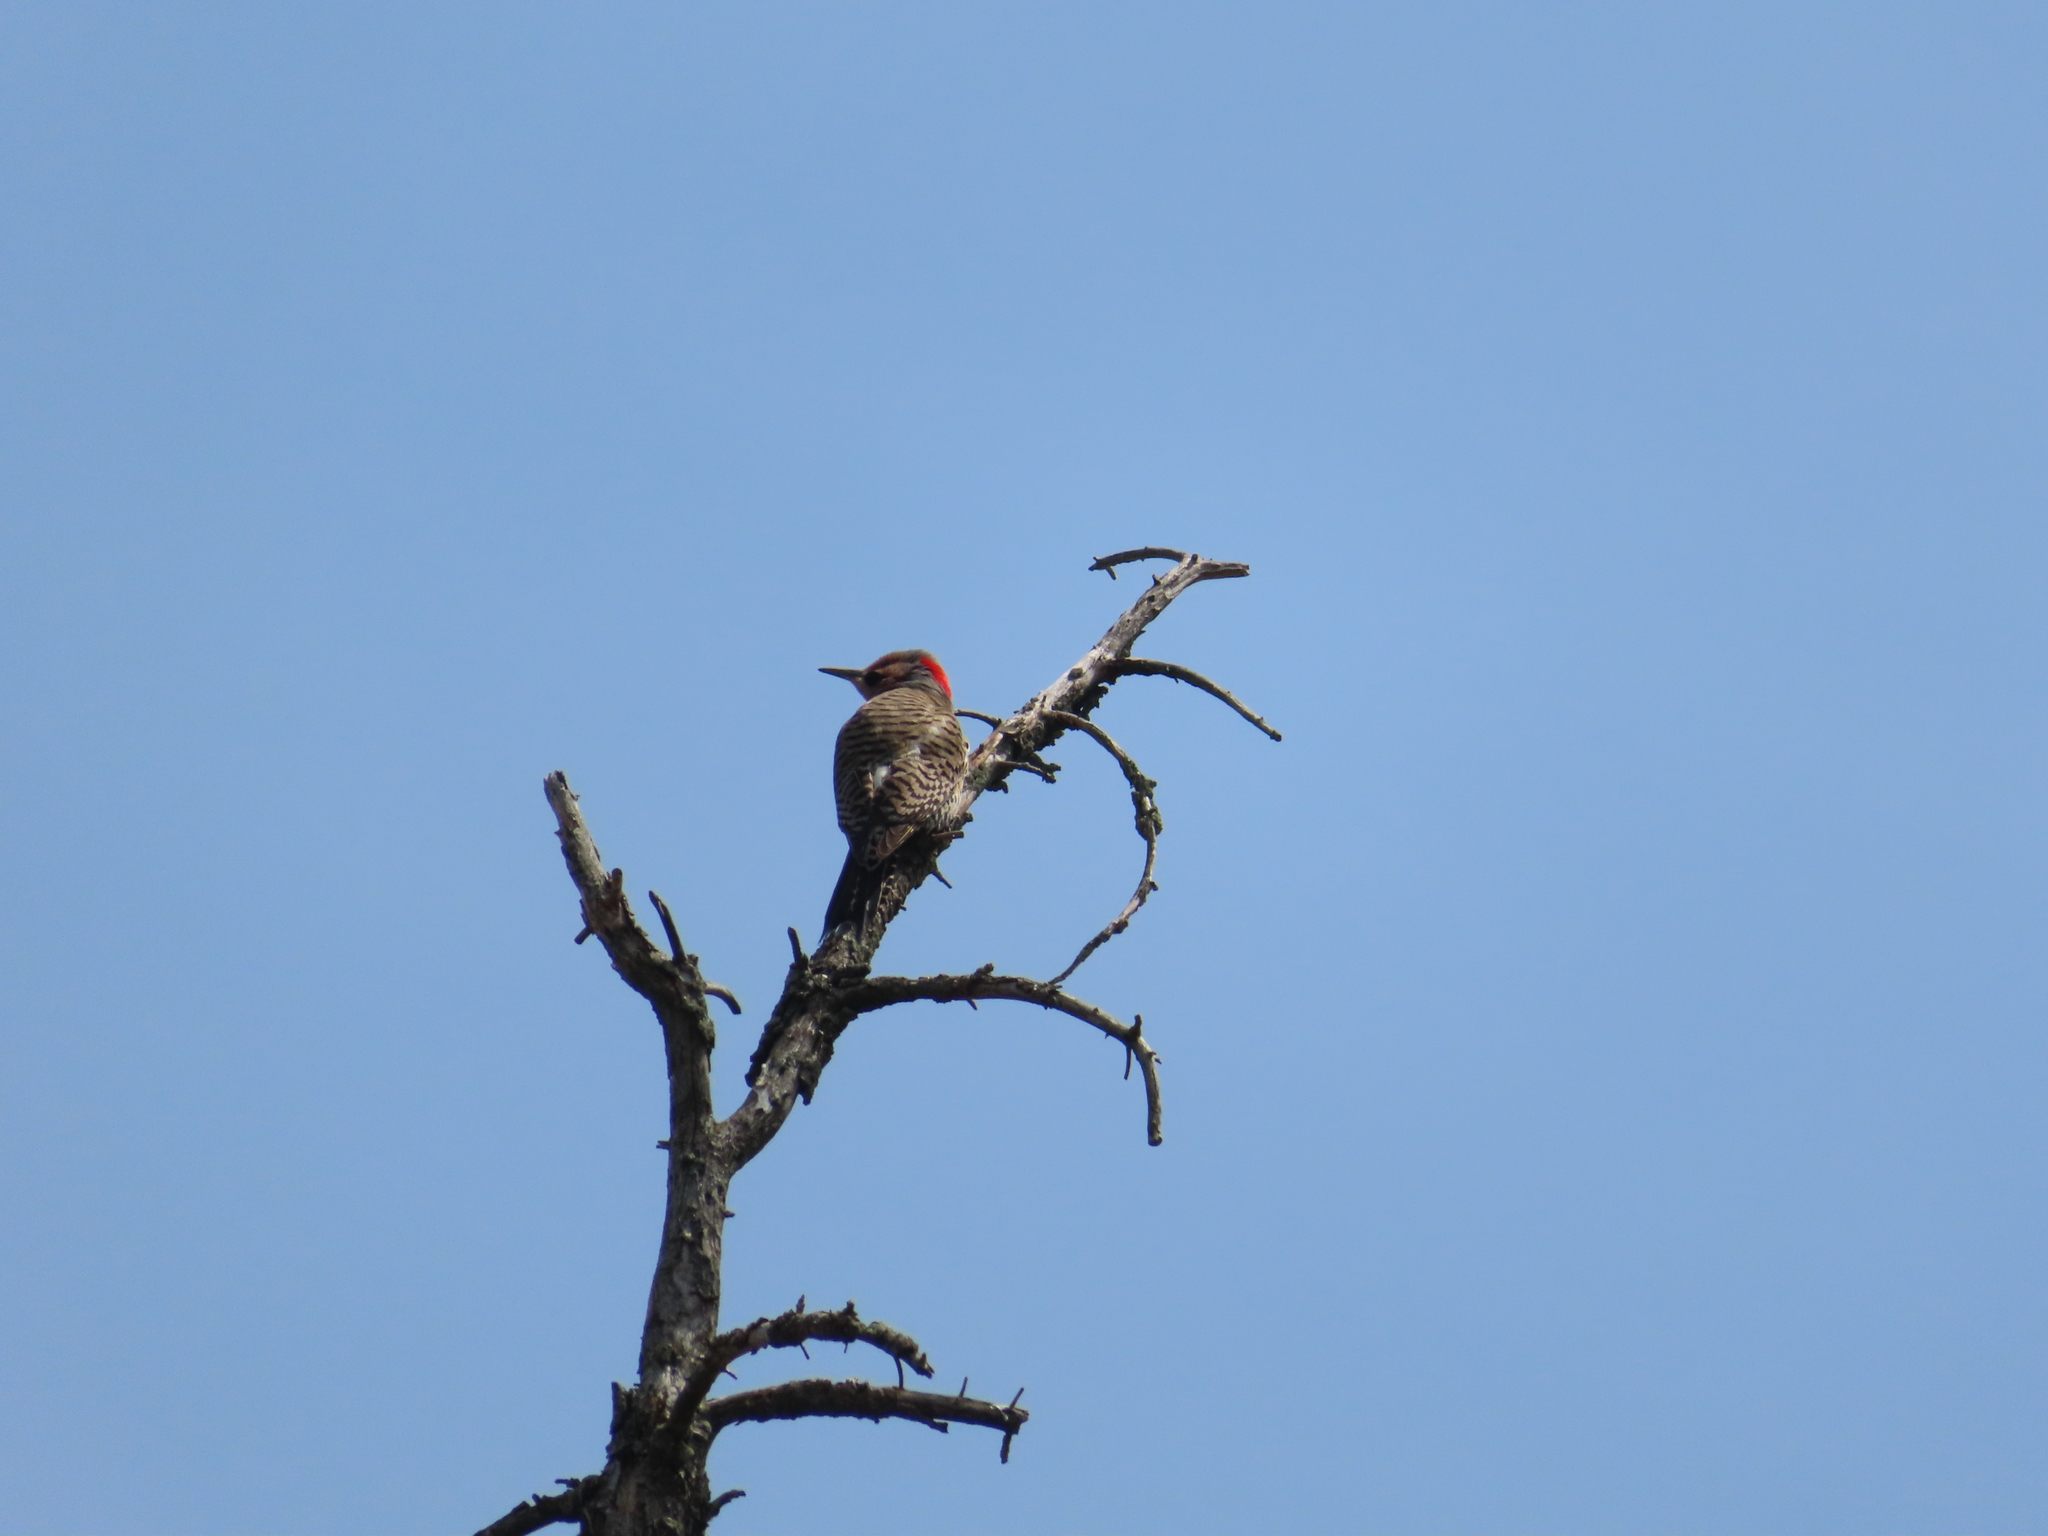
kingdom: Animalia
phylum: Chordata
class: Aves
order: Piciformes
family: Picidae
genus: Colaptes
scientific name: Colaptes auratus
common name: Northern flicker
